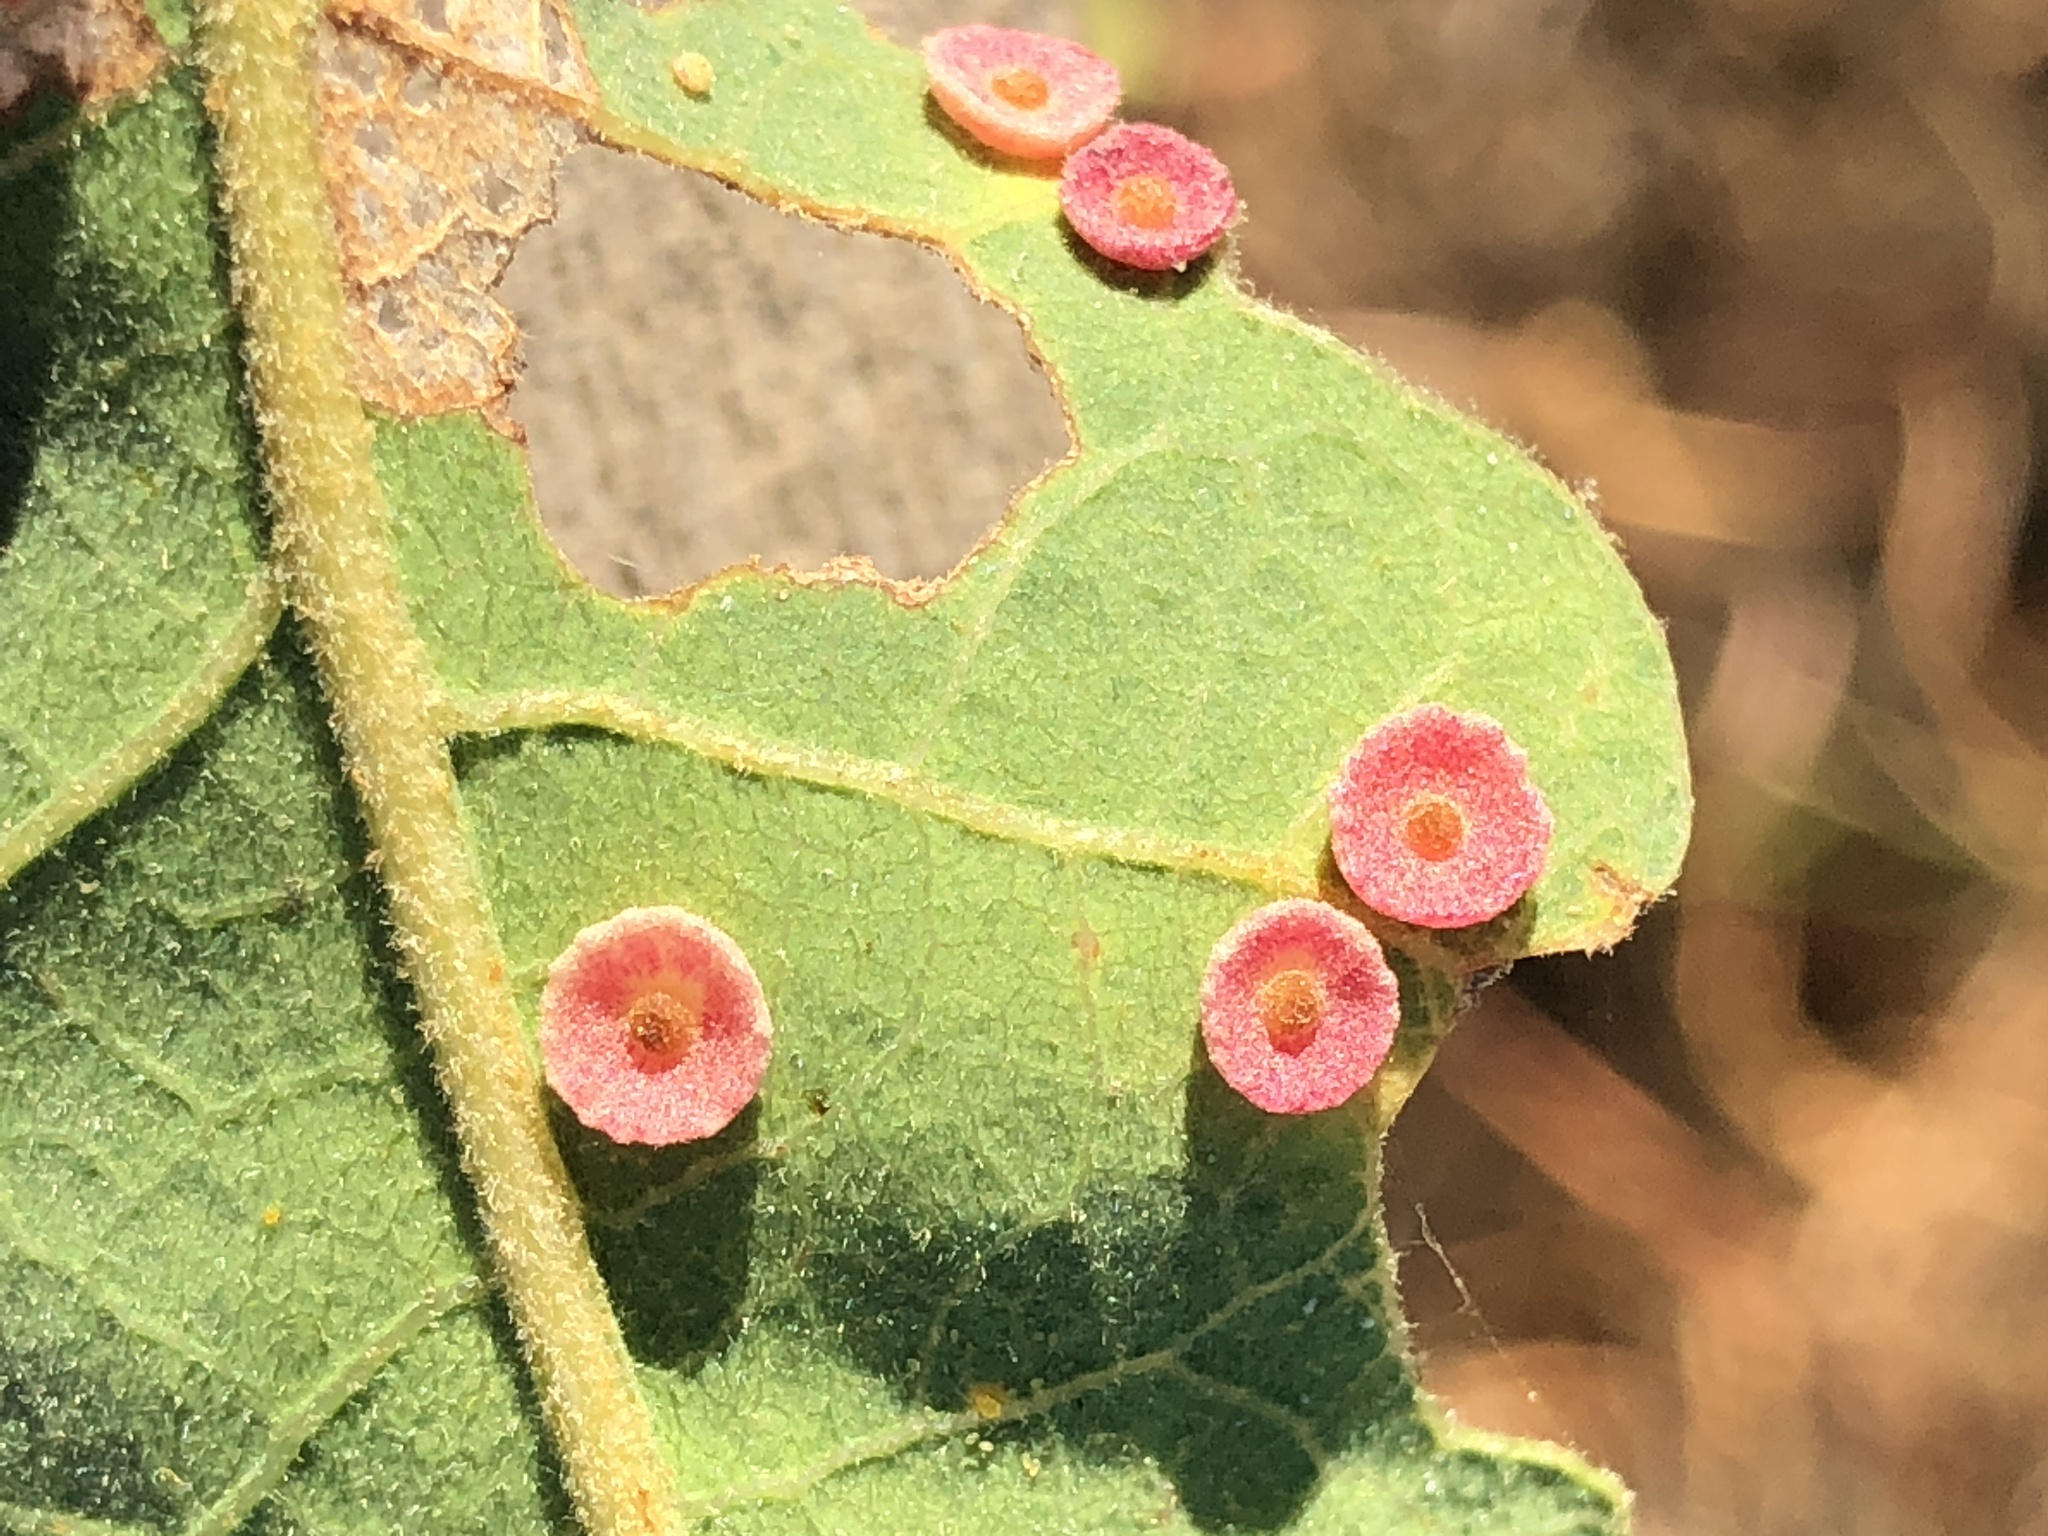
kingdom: Animalia
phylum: Arthropoda
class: Insecta
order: Hymenoptera
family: Cynipidae
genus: Andricus
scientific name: Andricus
